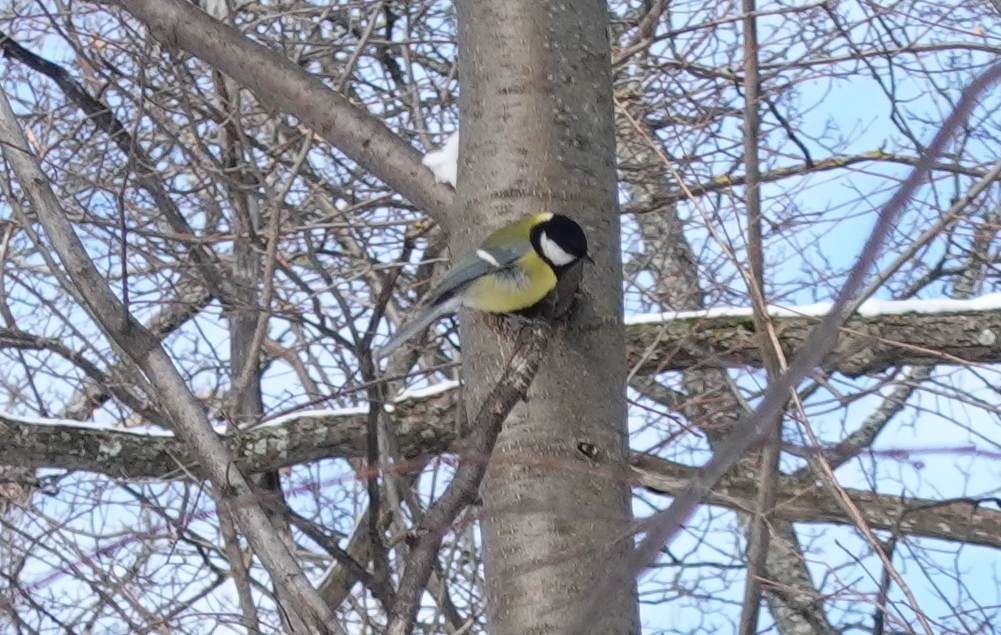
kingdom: Animalia
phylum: Chordata
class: Aves
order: Passeriformes
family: Paridae
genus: Parus
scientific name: Parus major
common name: Great tit
